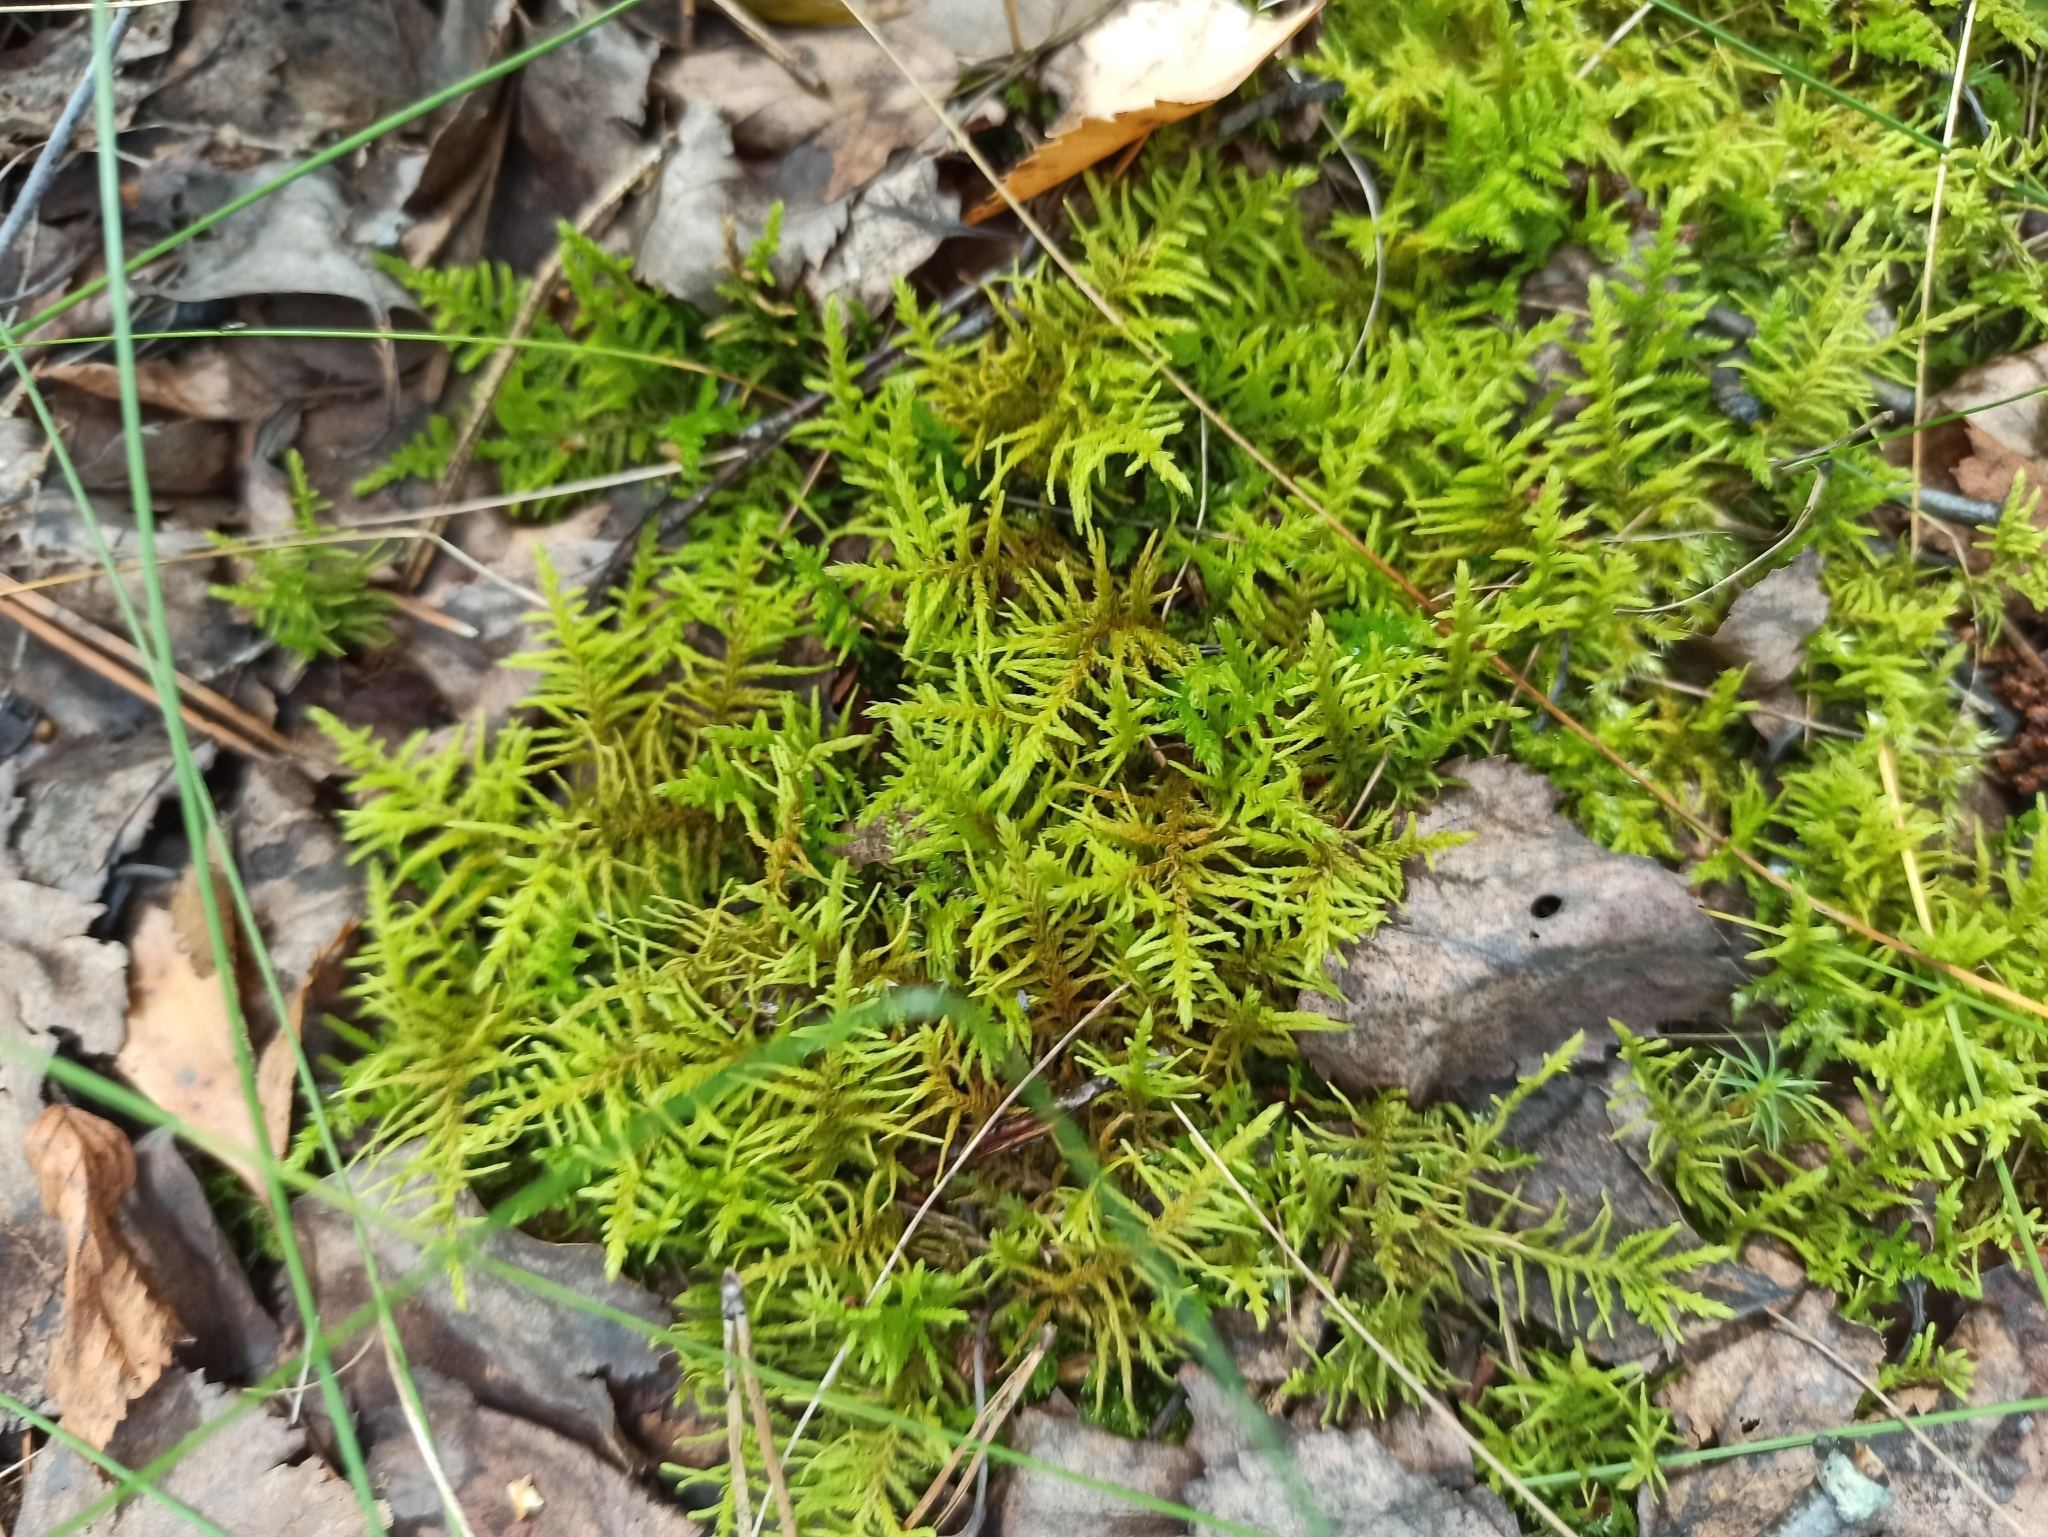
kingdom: Plantae
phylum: Bryophyta
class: Bryopsida
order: Hypnales
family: Thuidiaceae
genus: Abietinella
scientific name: Abietinella abietina
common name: Wiry fern moss
